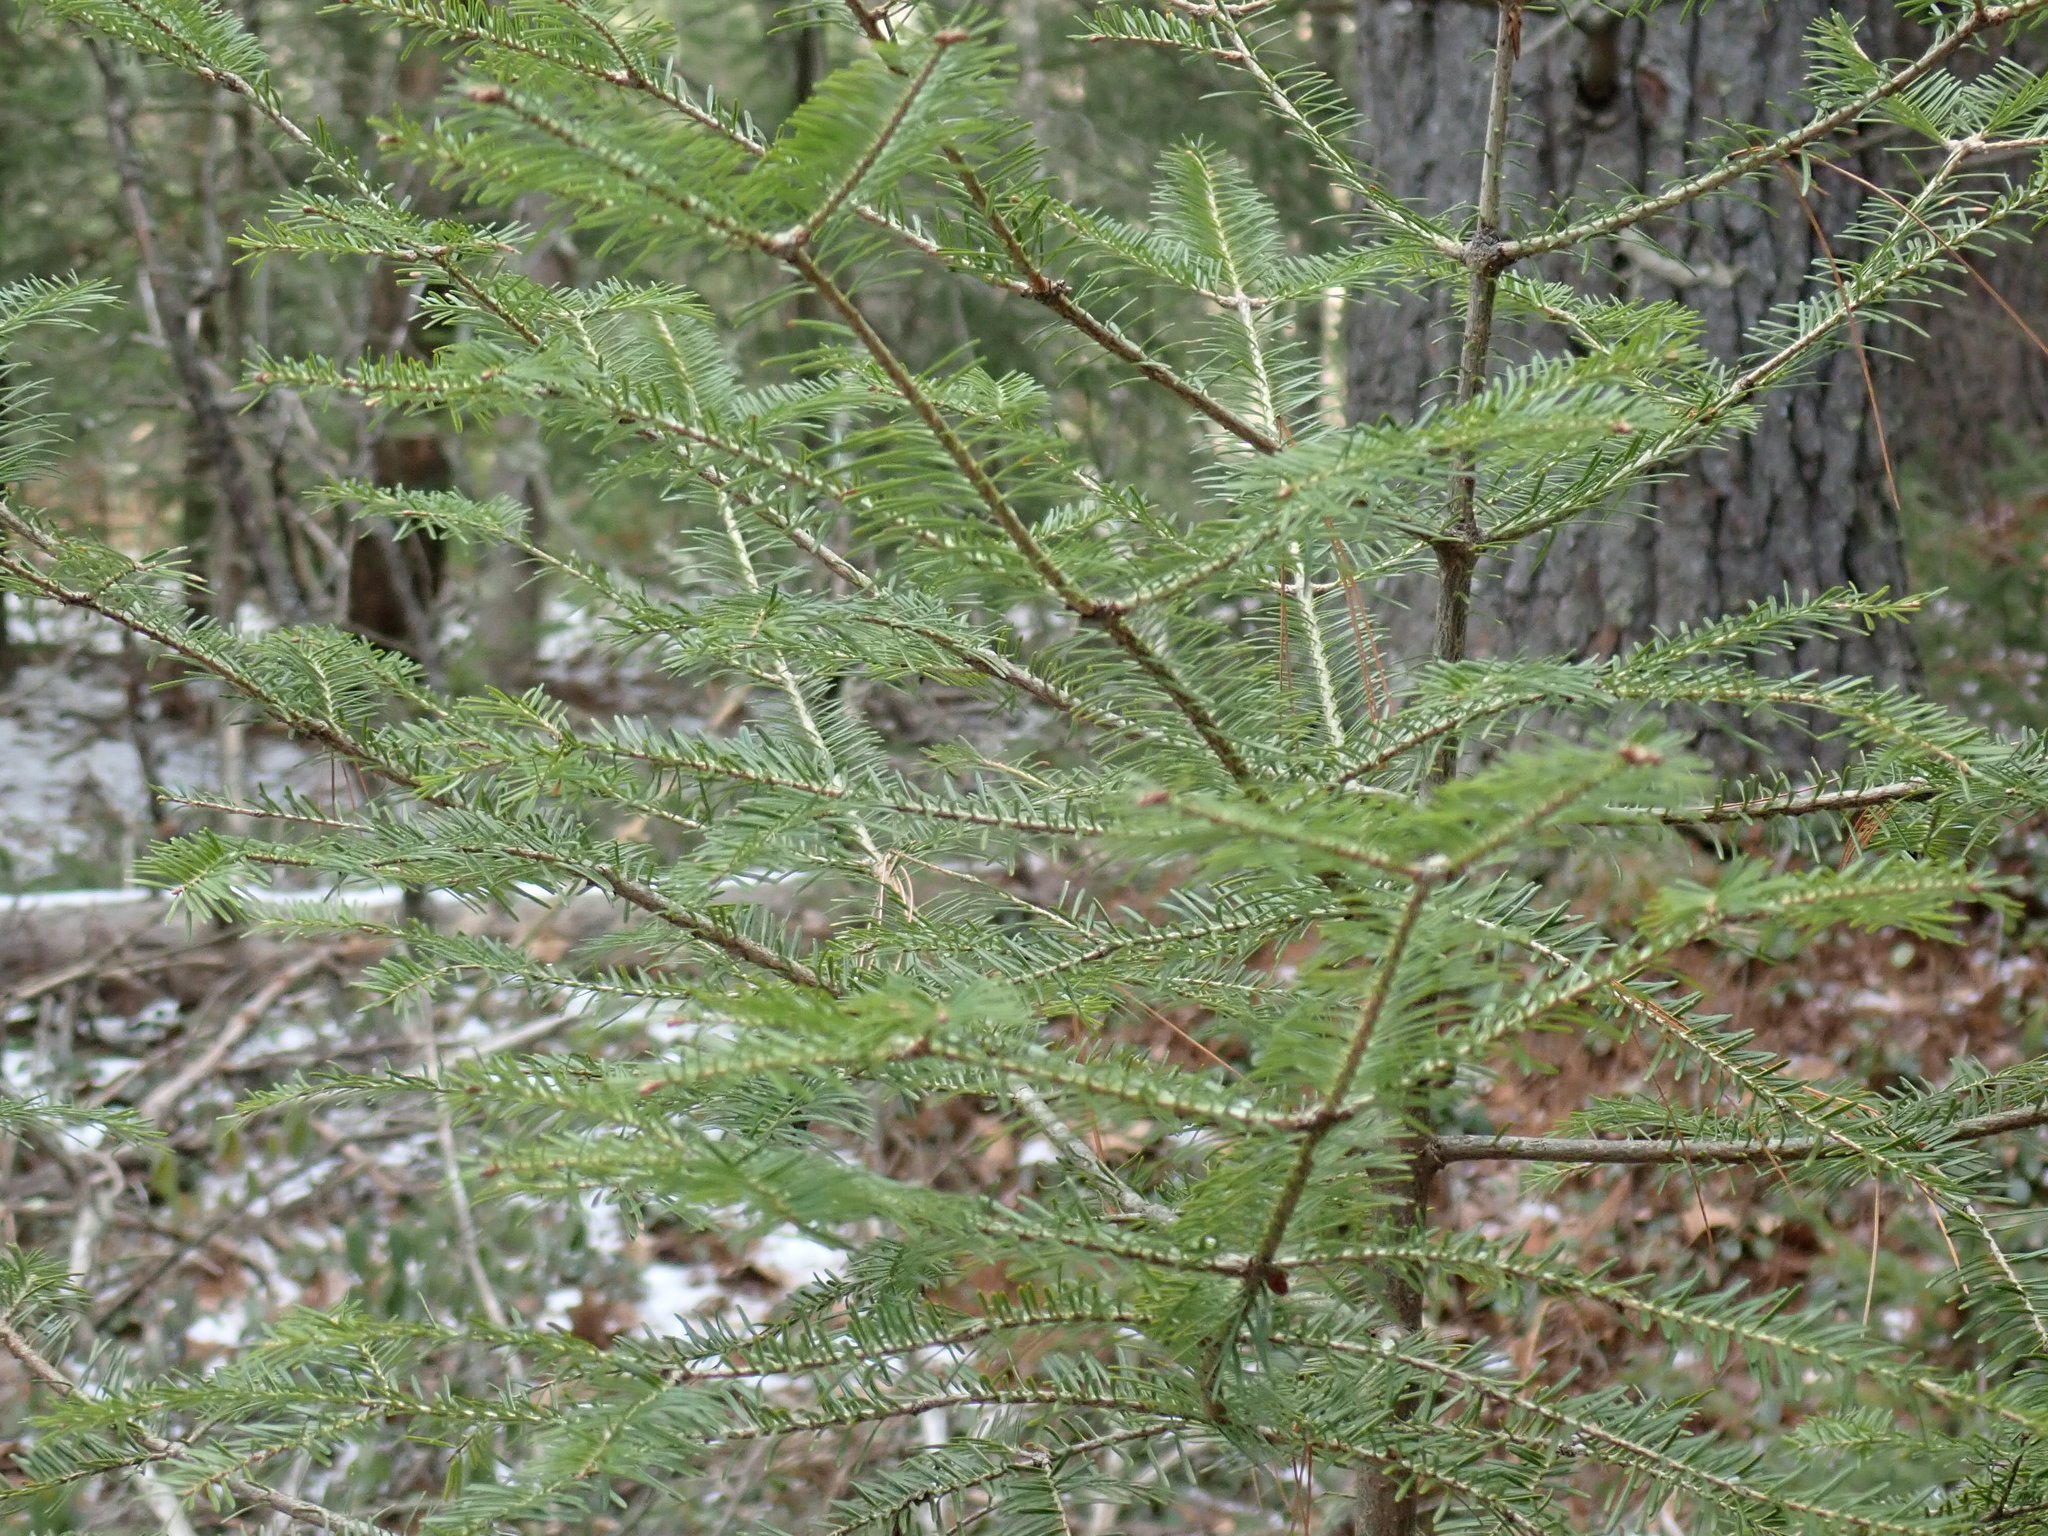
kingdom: Plantae
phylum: Tracheophyta
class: Pinopsida
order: Pinales
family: Pinaceae
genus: Abies
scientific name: Abies balsamea
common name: Balsam fir
